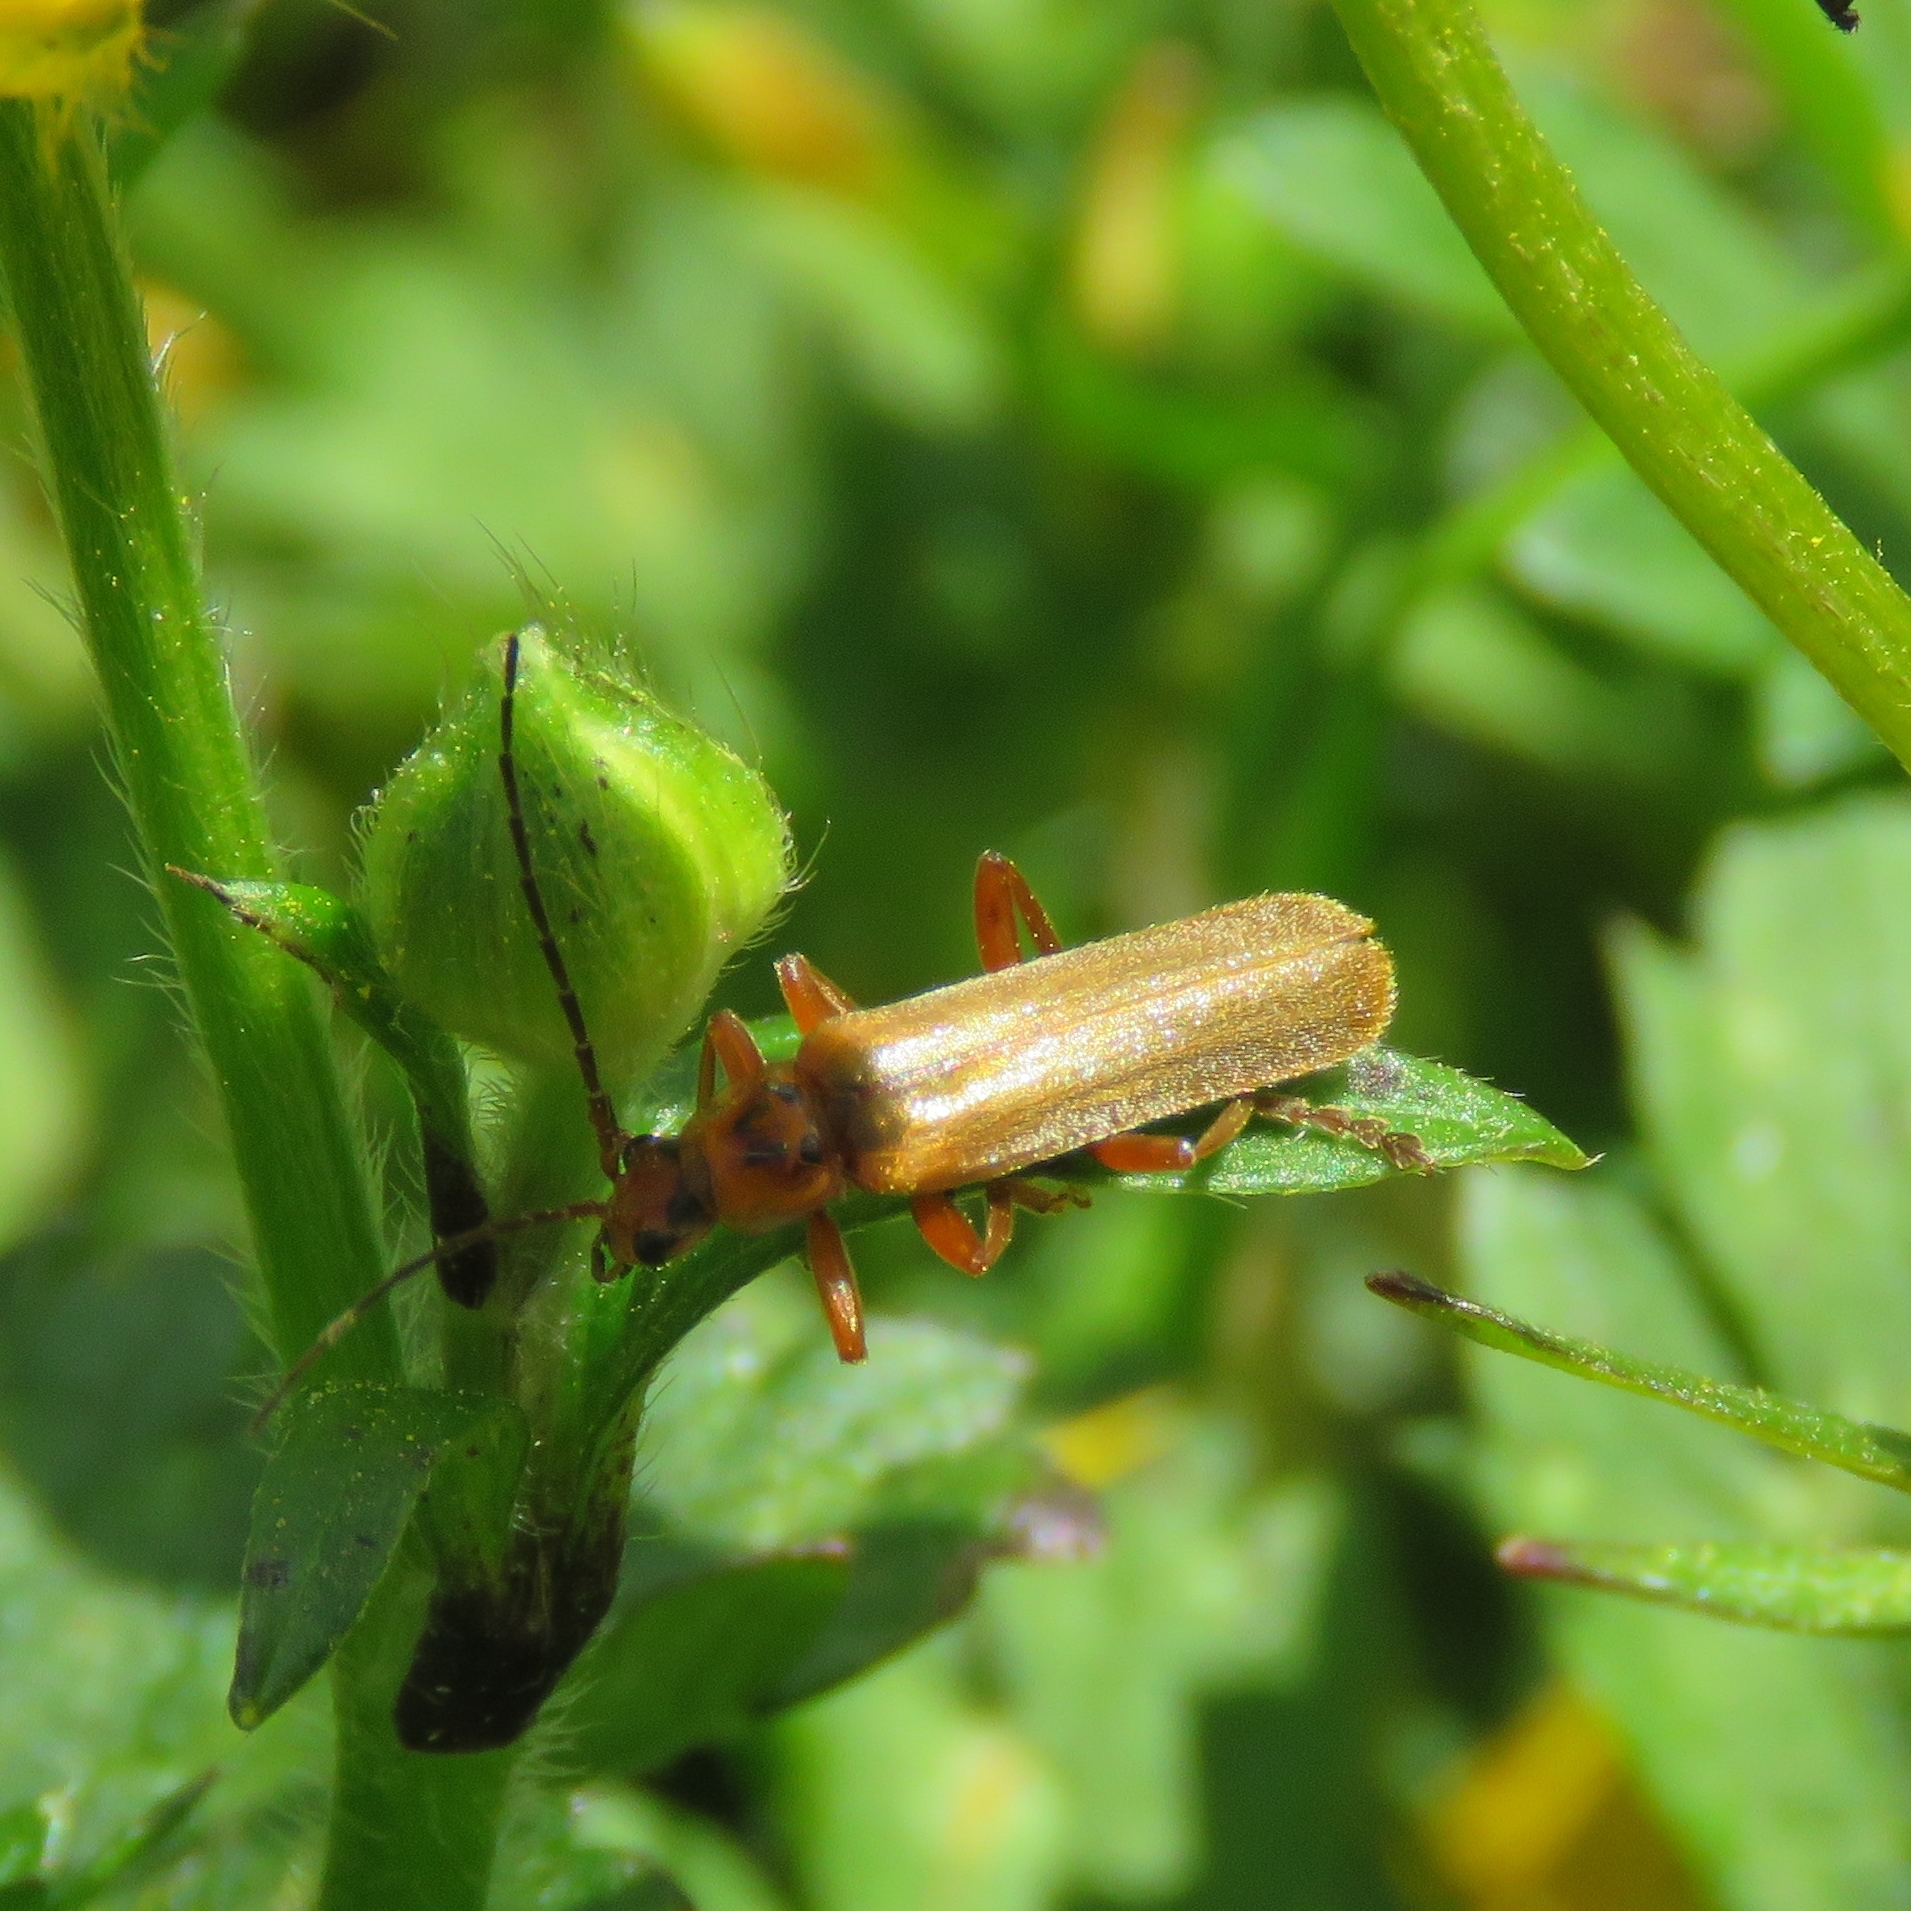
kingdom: Animalia
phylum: Arthropoda
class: Insecta
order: Coleoptera
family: Cantharidae
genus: Cantharis
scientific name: Cantharis rufa
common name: Red-spotted soldier beetle
